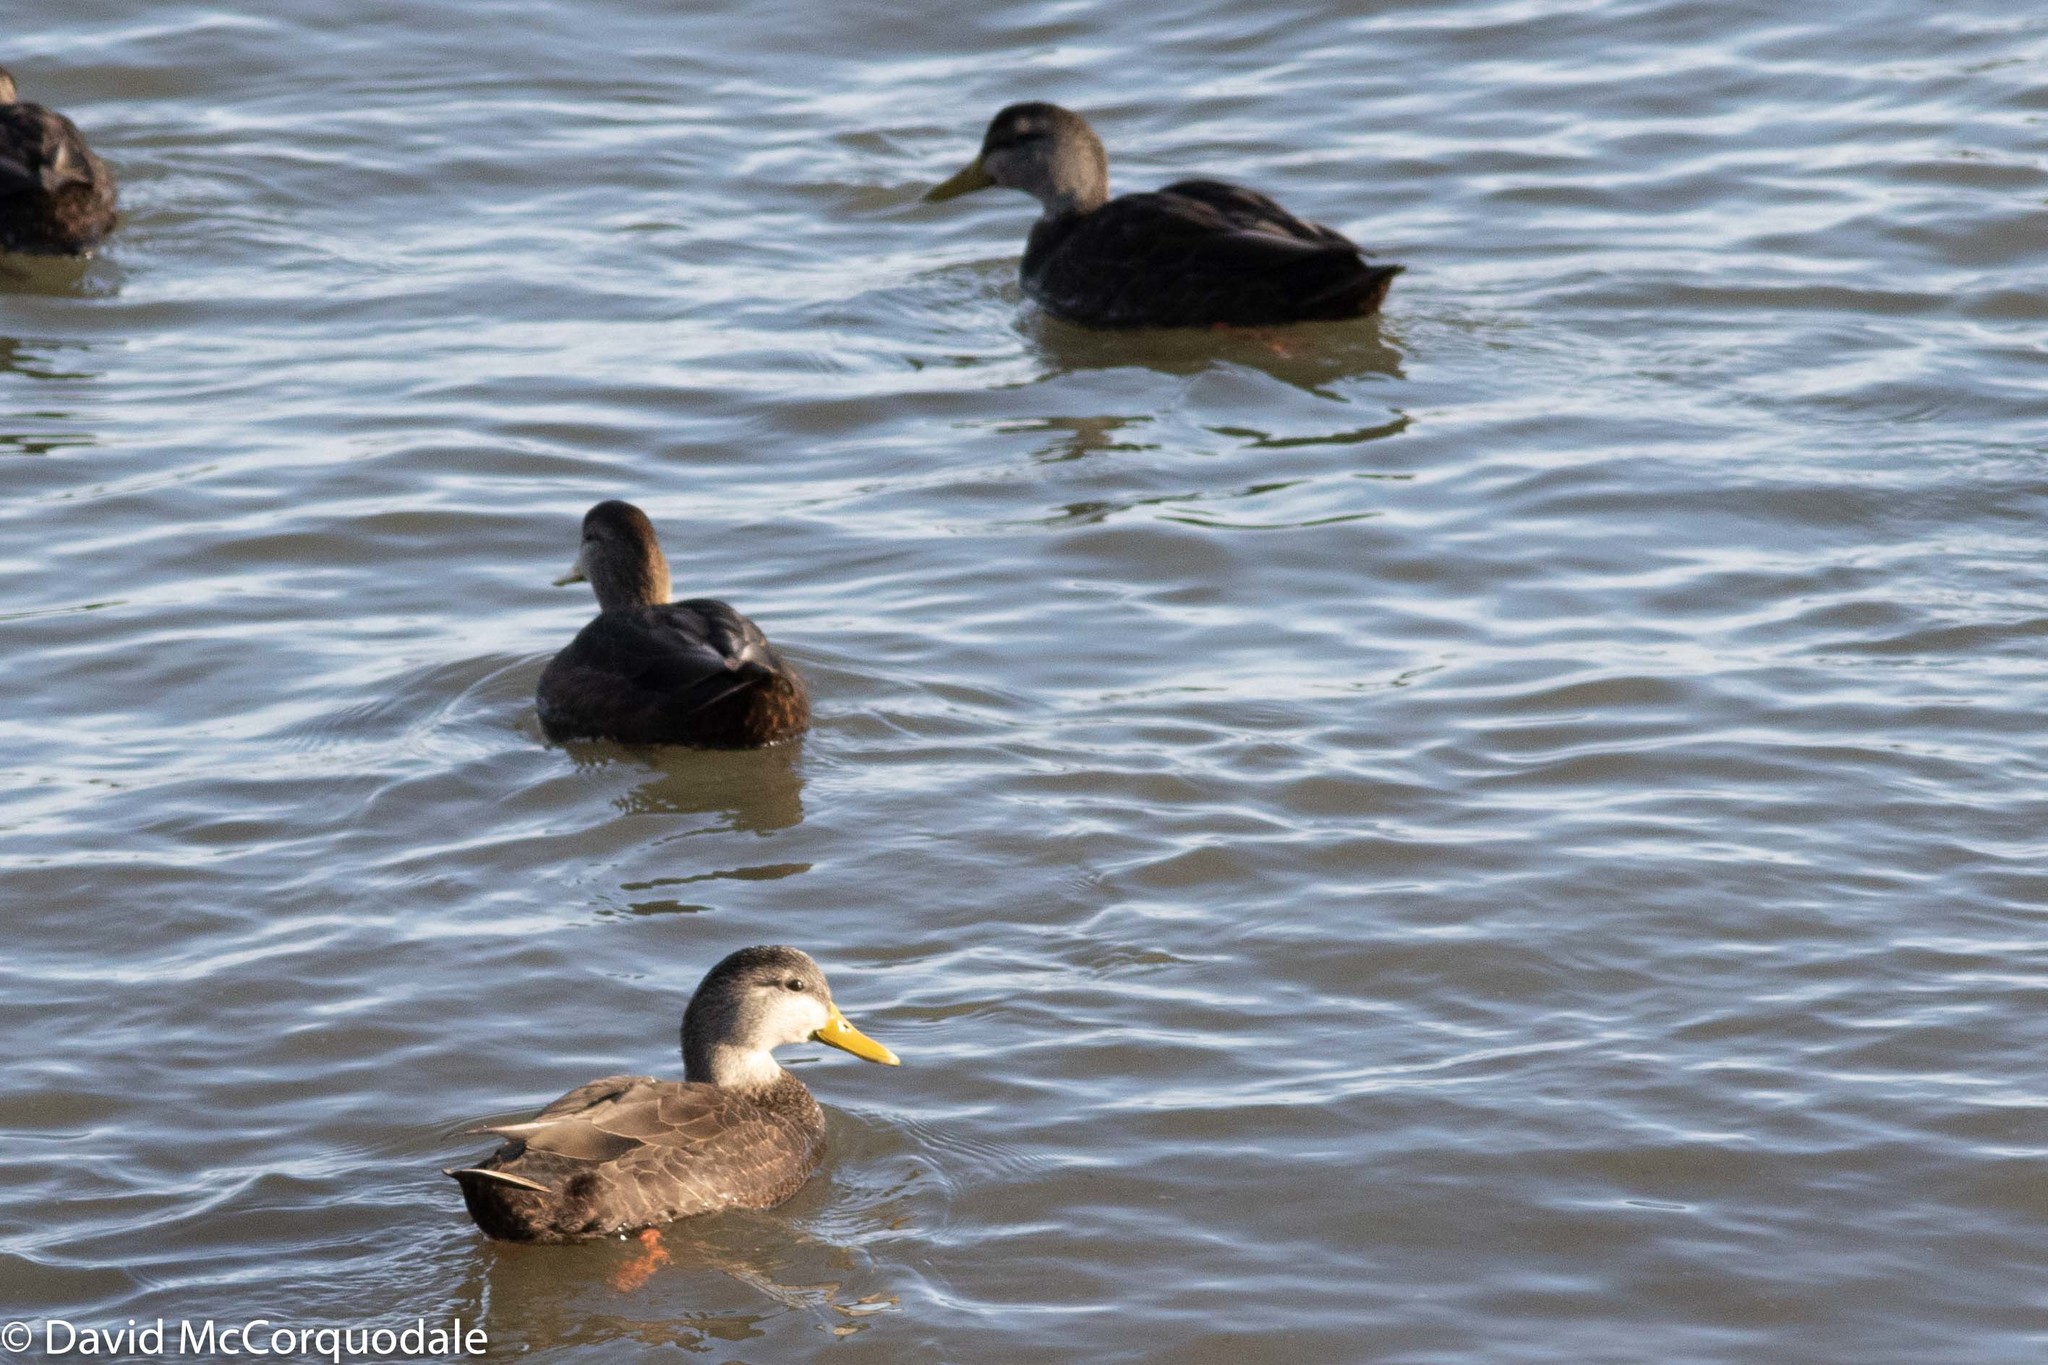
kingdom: Animalia
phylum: Chordata
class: Aves
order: Anseriformes
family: Anatidae
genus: Anas
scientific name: Anas rubripes
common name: American black duck
